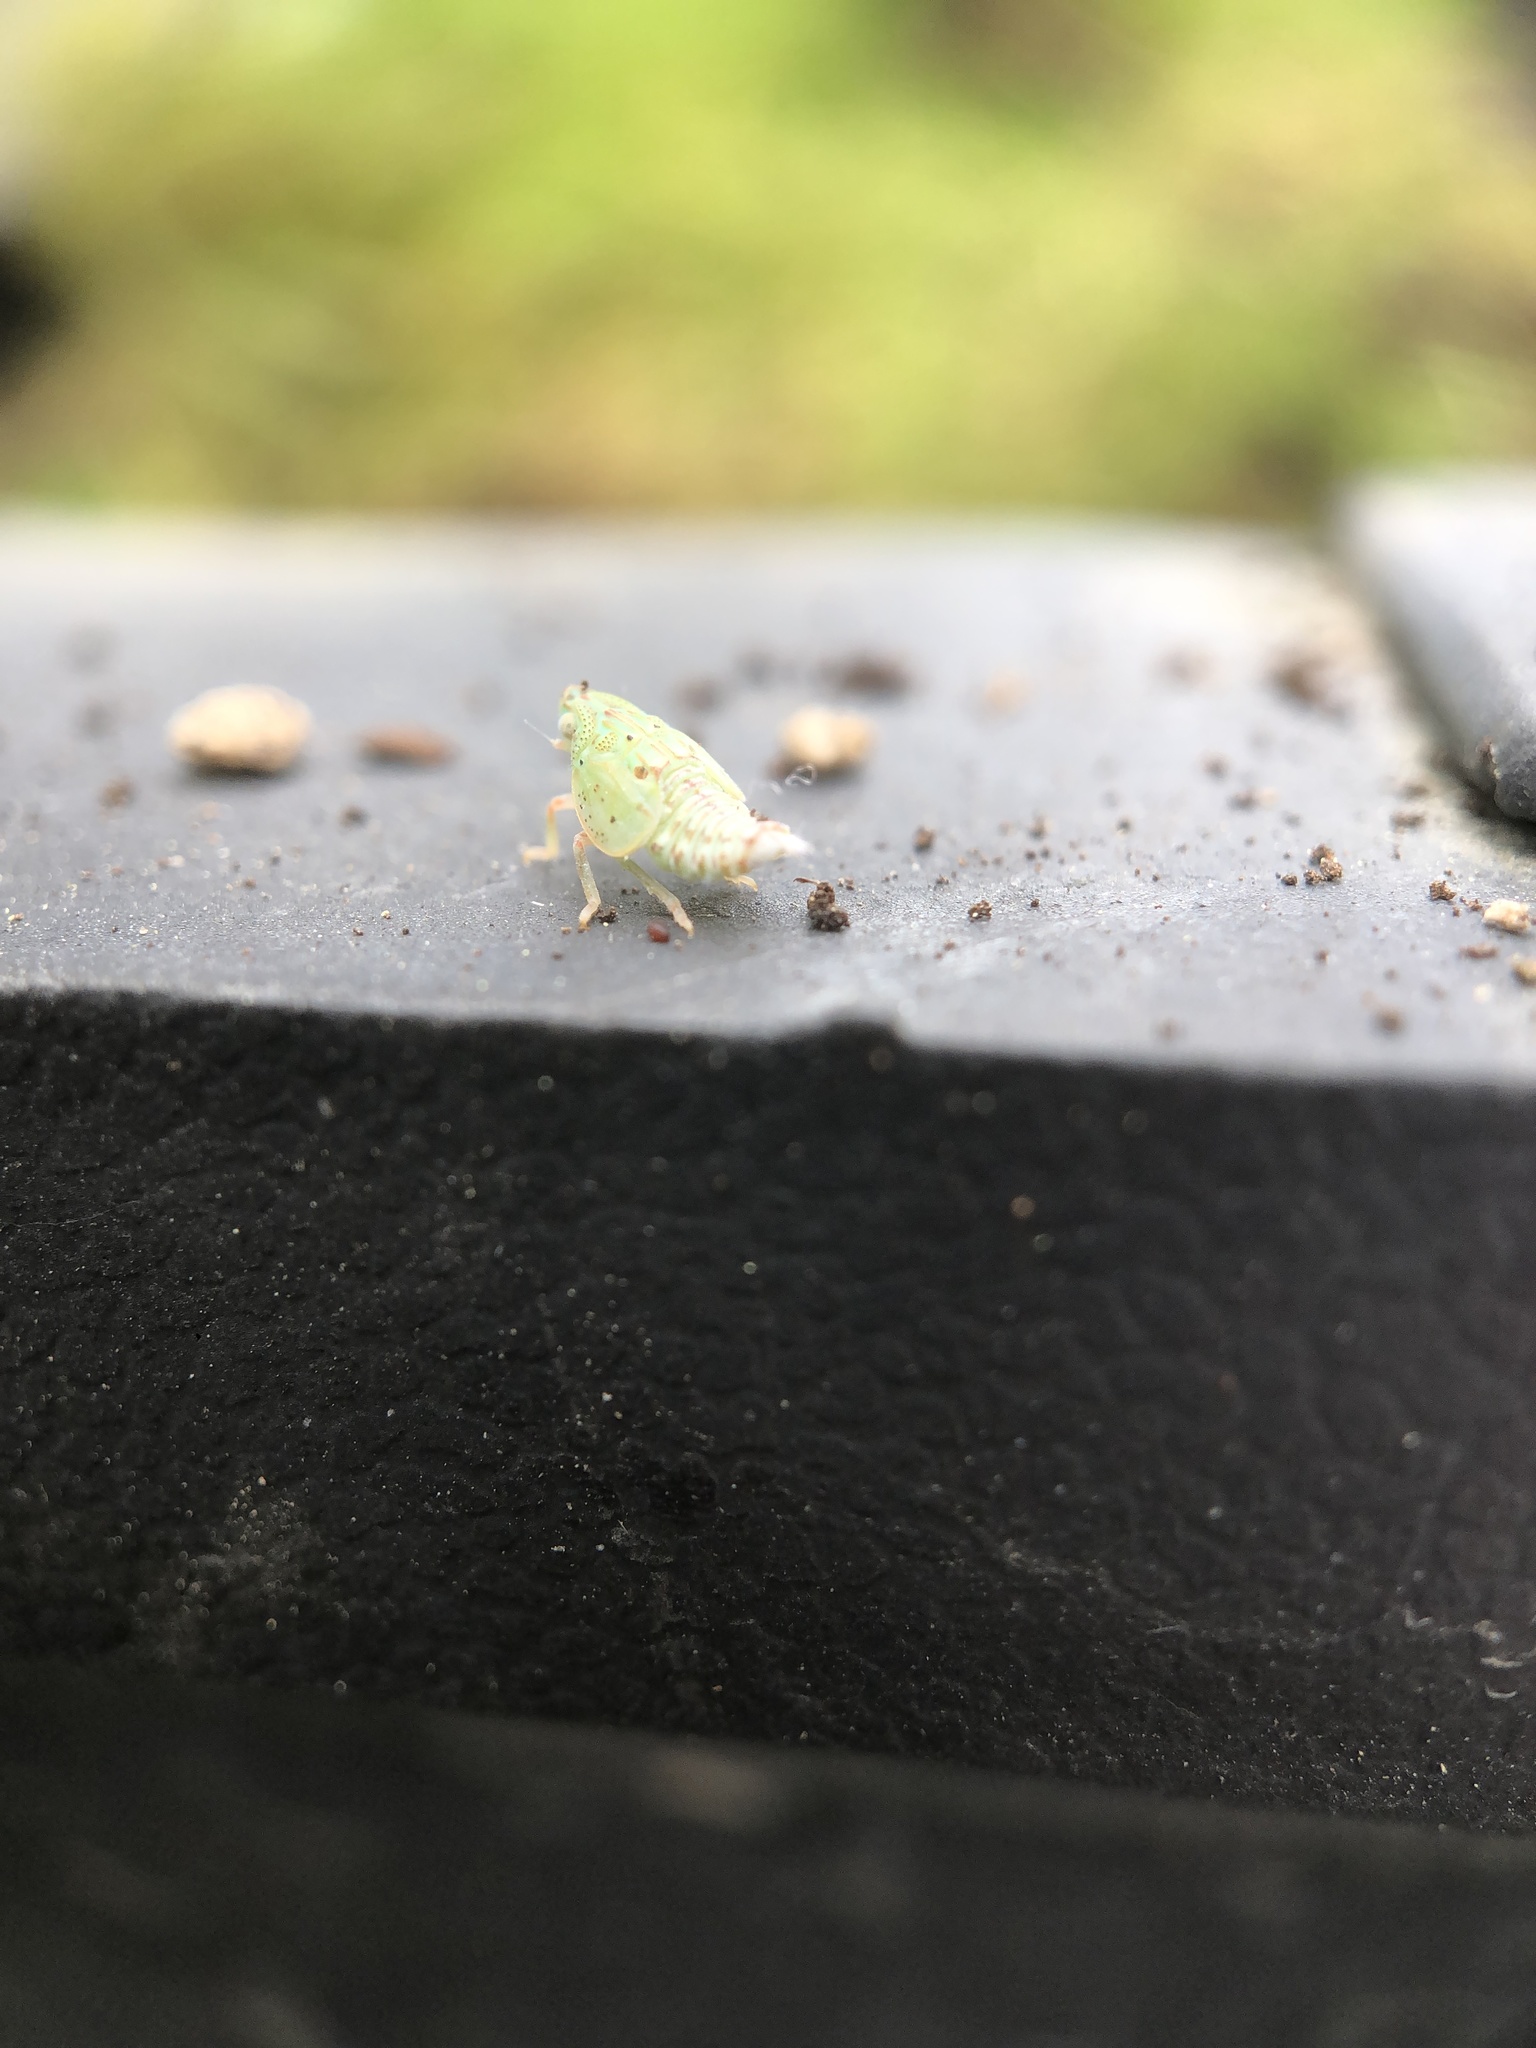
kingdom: Animalia
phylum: Arthropoda
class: Insecta
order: Hemiptera
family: Flatidae
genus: Siphanta
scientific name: Siphanta acuta
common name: Torpedo bug
